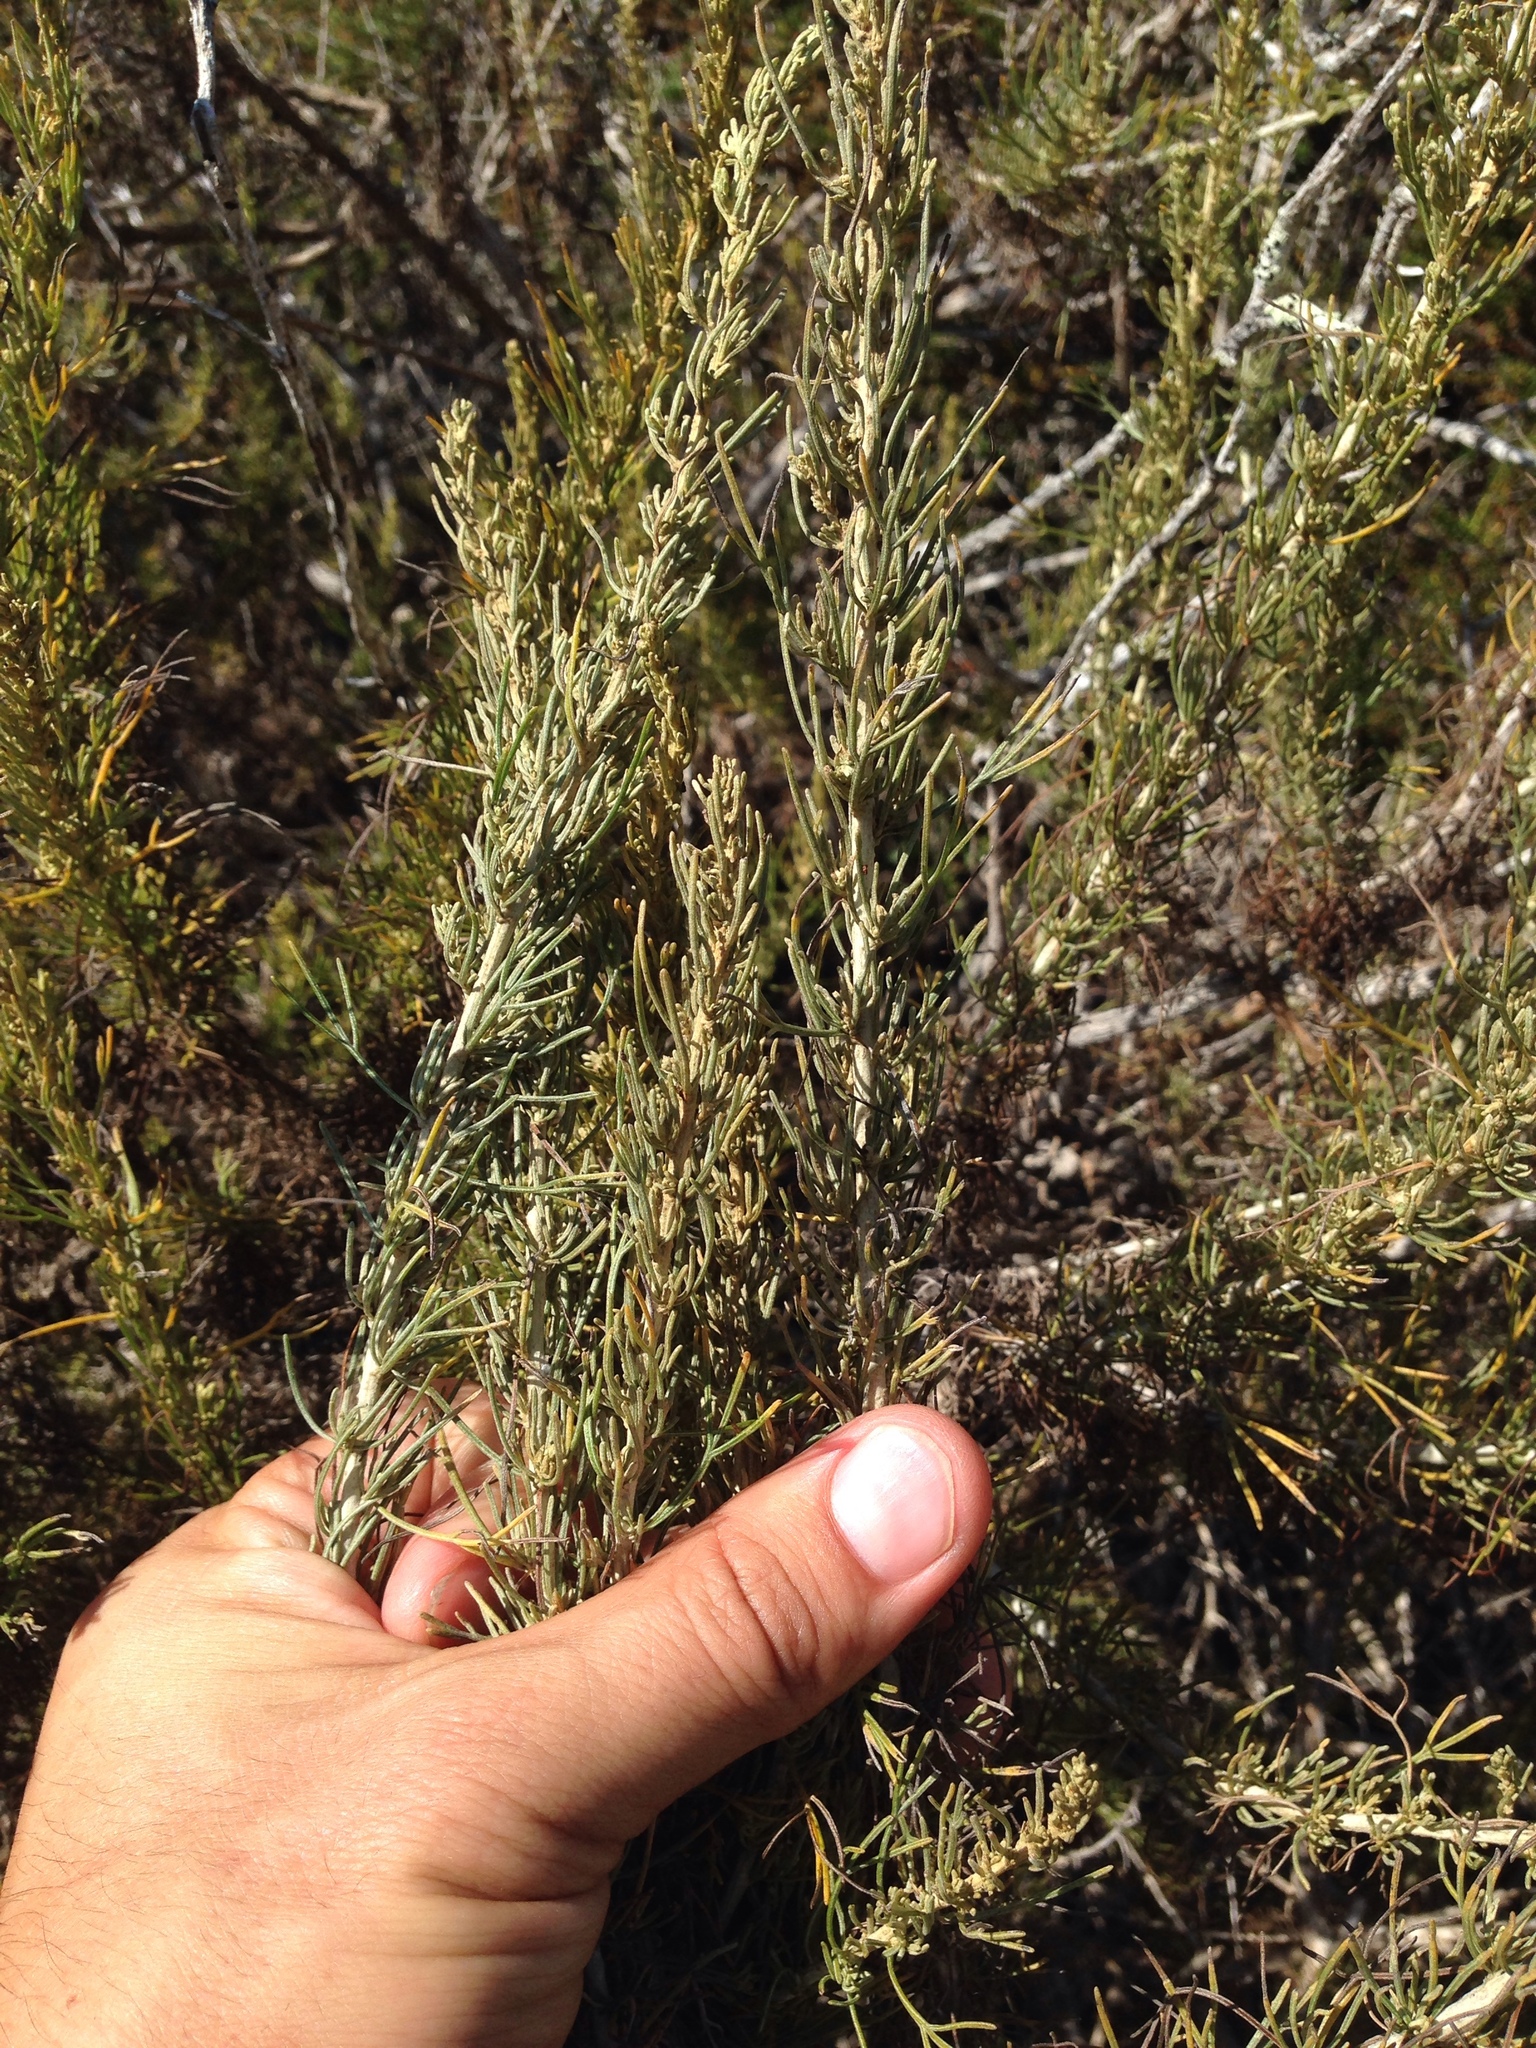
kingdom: Plantae
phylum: Tracheophyta
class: Magnoliopsida
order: Asterales
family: Asteraceae
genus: Artemisia
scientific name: Artemisia californica
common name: California sagebrush
